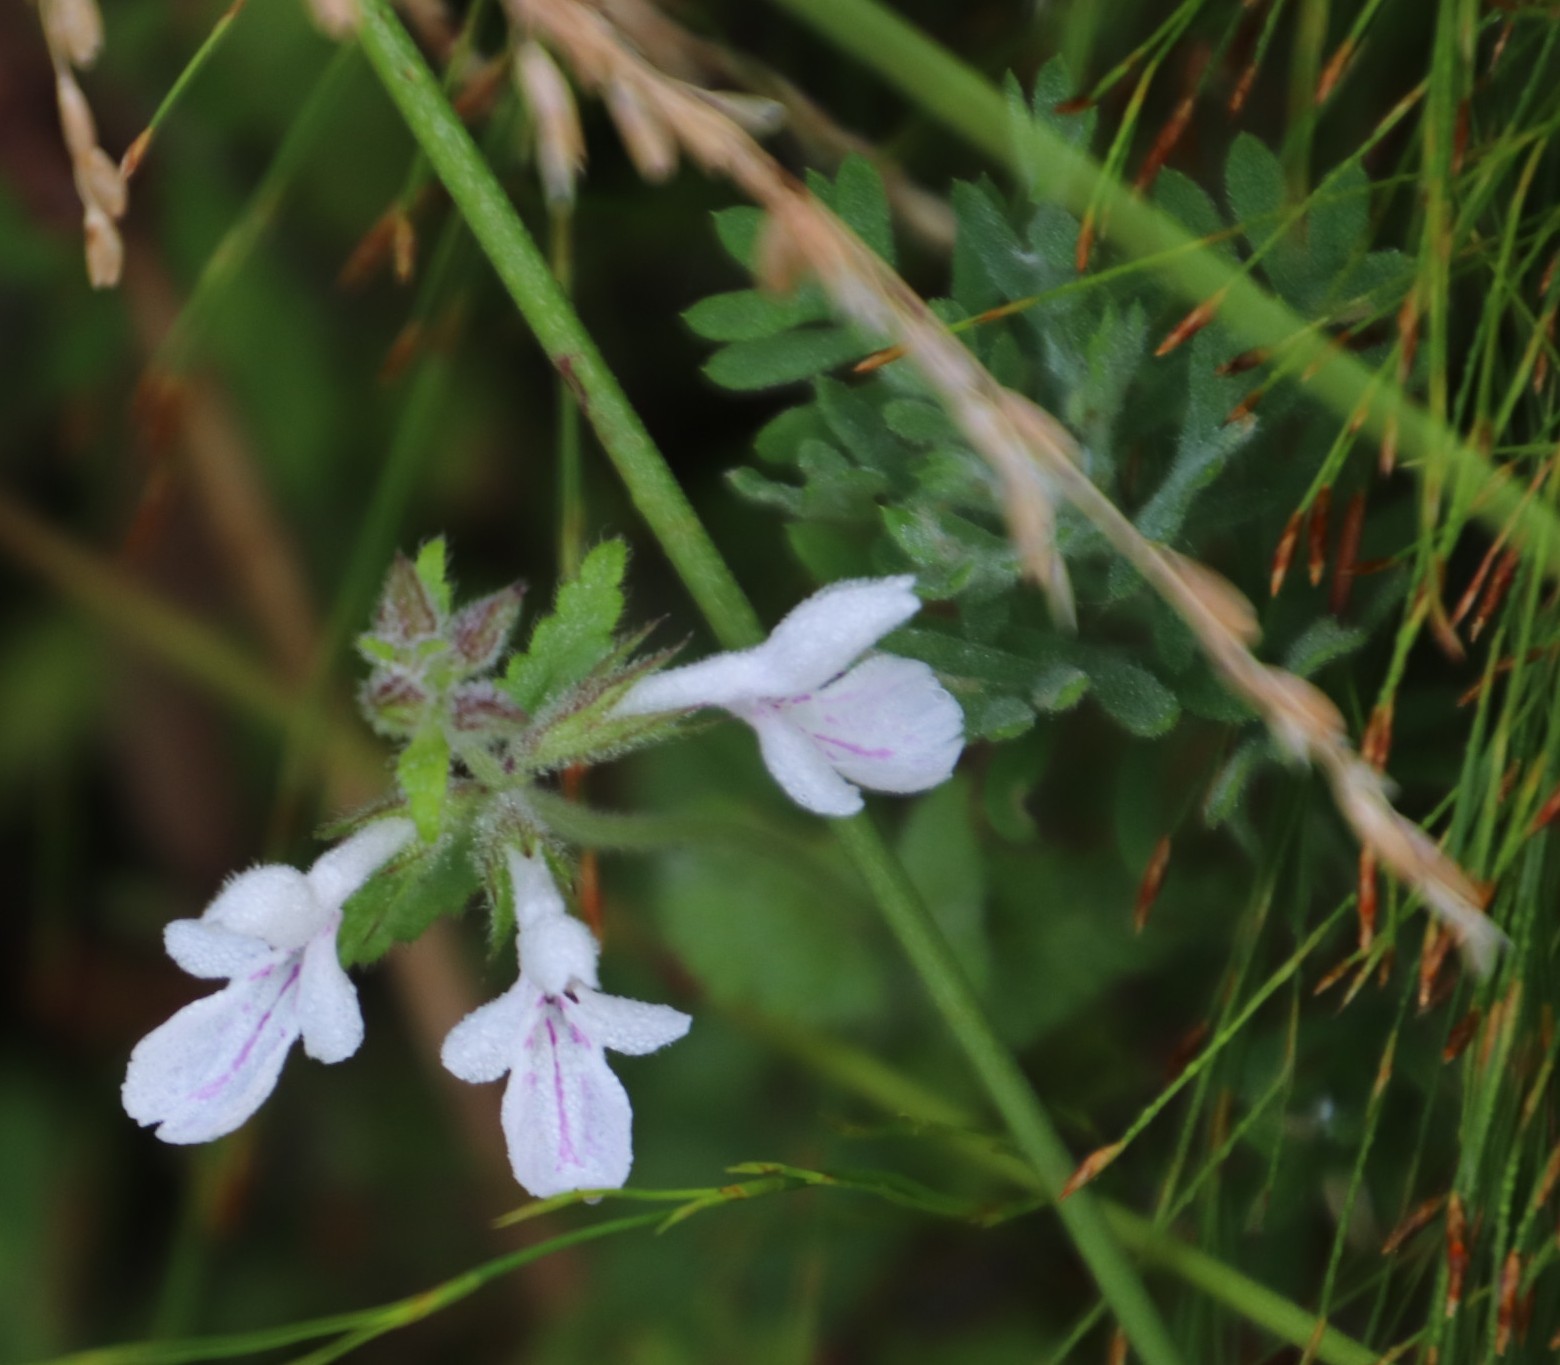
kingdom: Plantae
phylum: Tracheophyta
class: Magnoliopsida
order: Lamiales
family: Lamiaceae
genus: Stachys
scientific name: Stachys aethiopica
